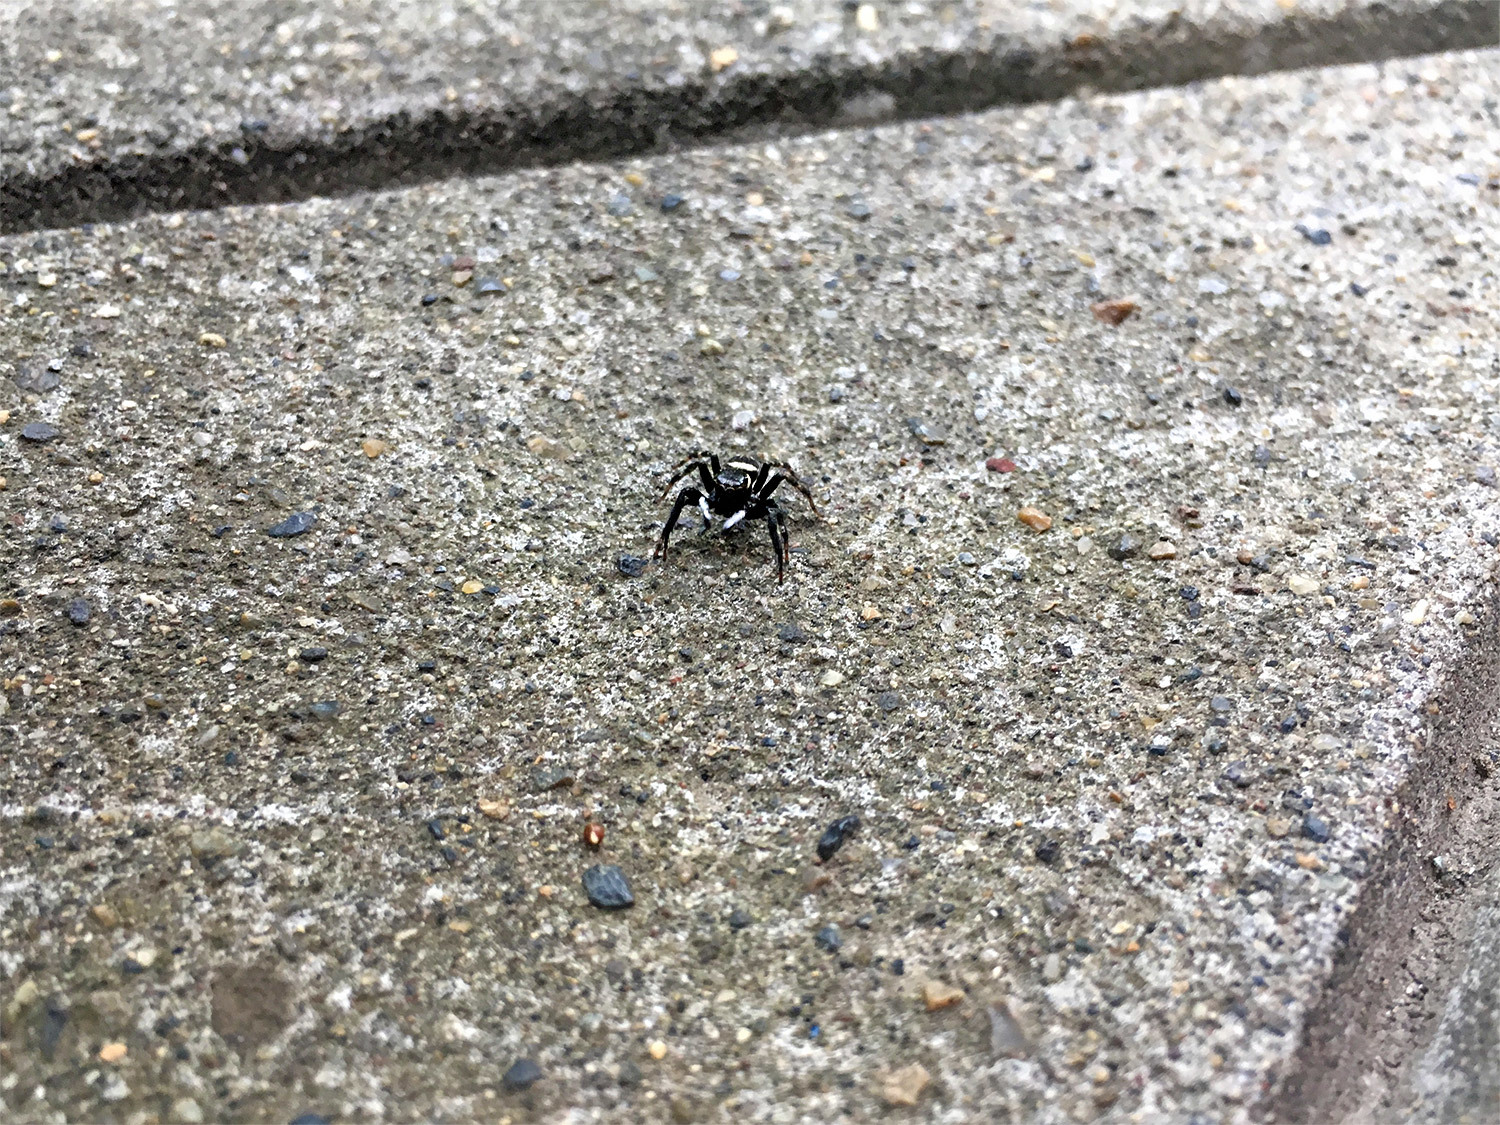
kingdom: Animalia
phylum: Arthropoda
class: Arachnida
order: Araneae
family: Salticidae
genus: Hasarius
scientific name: Hasarius adansoni
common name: Jumping spider
